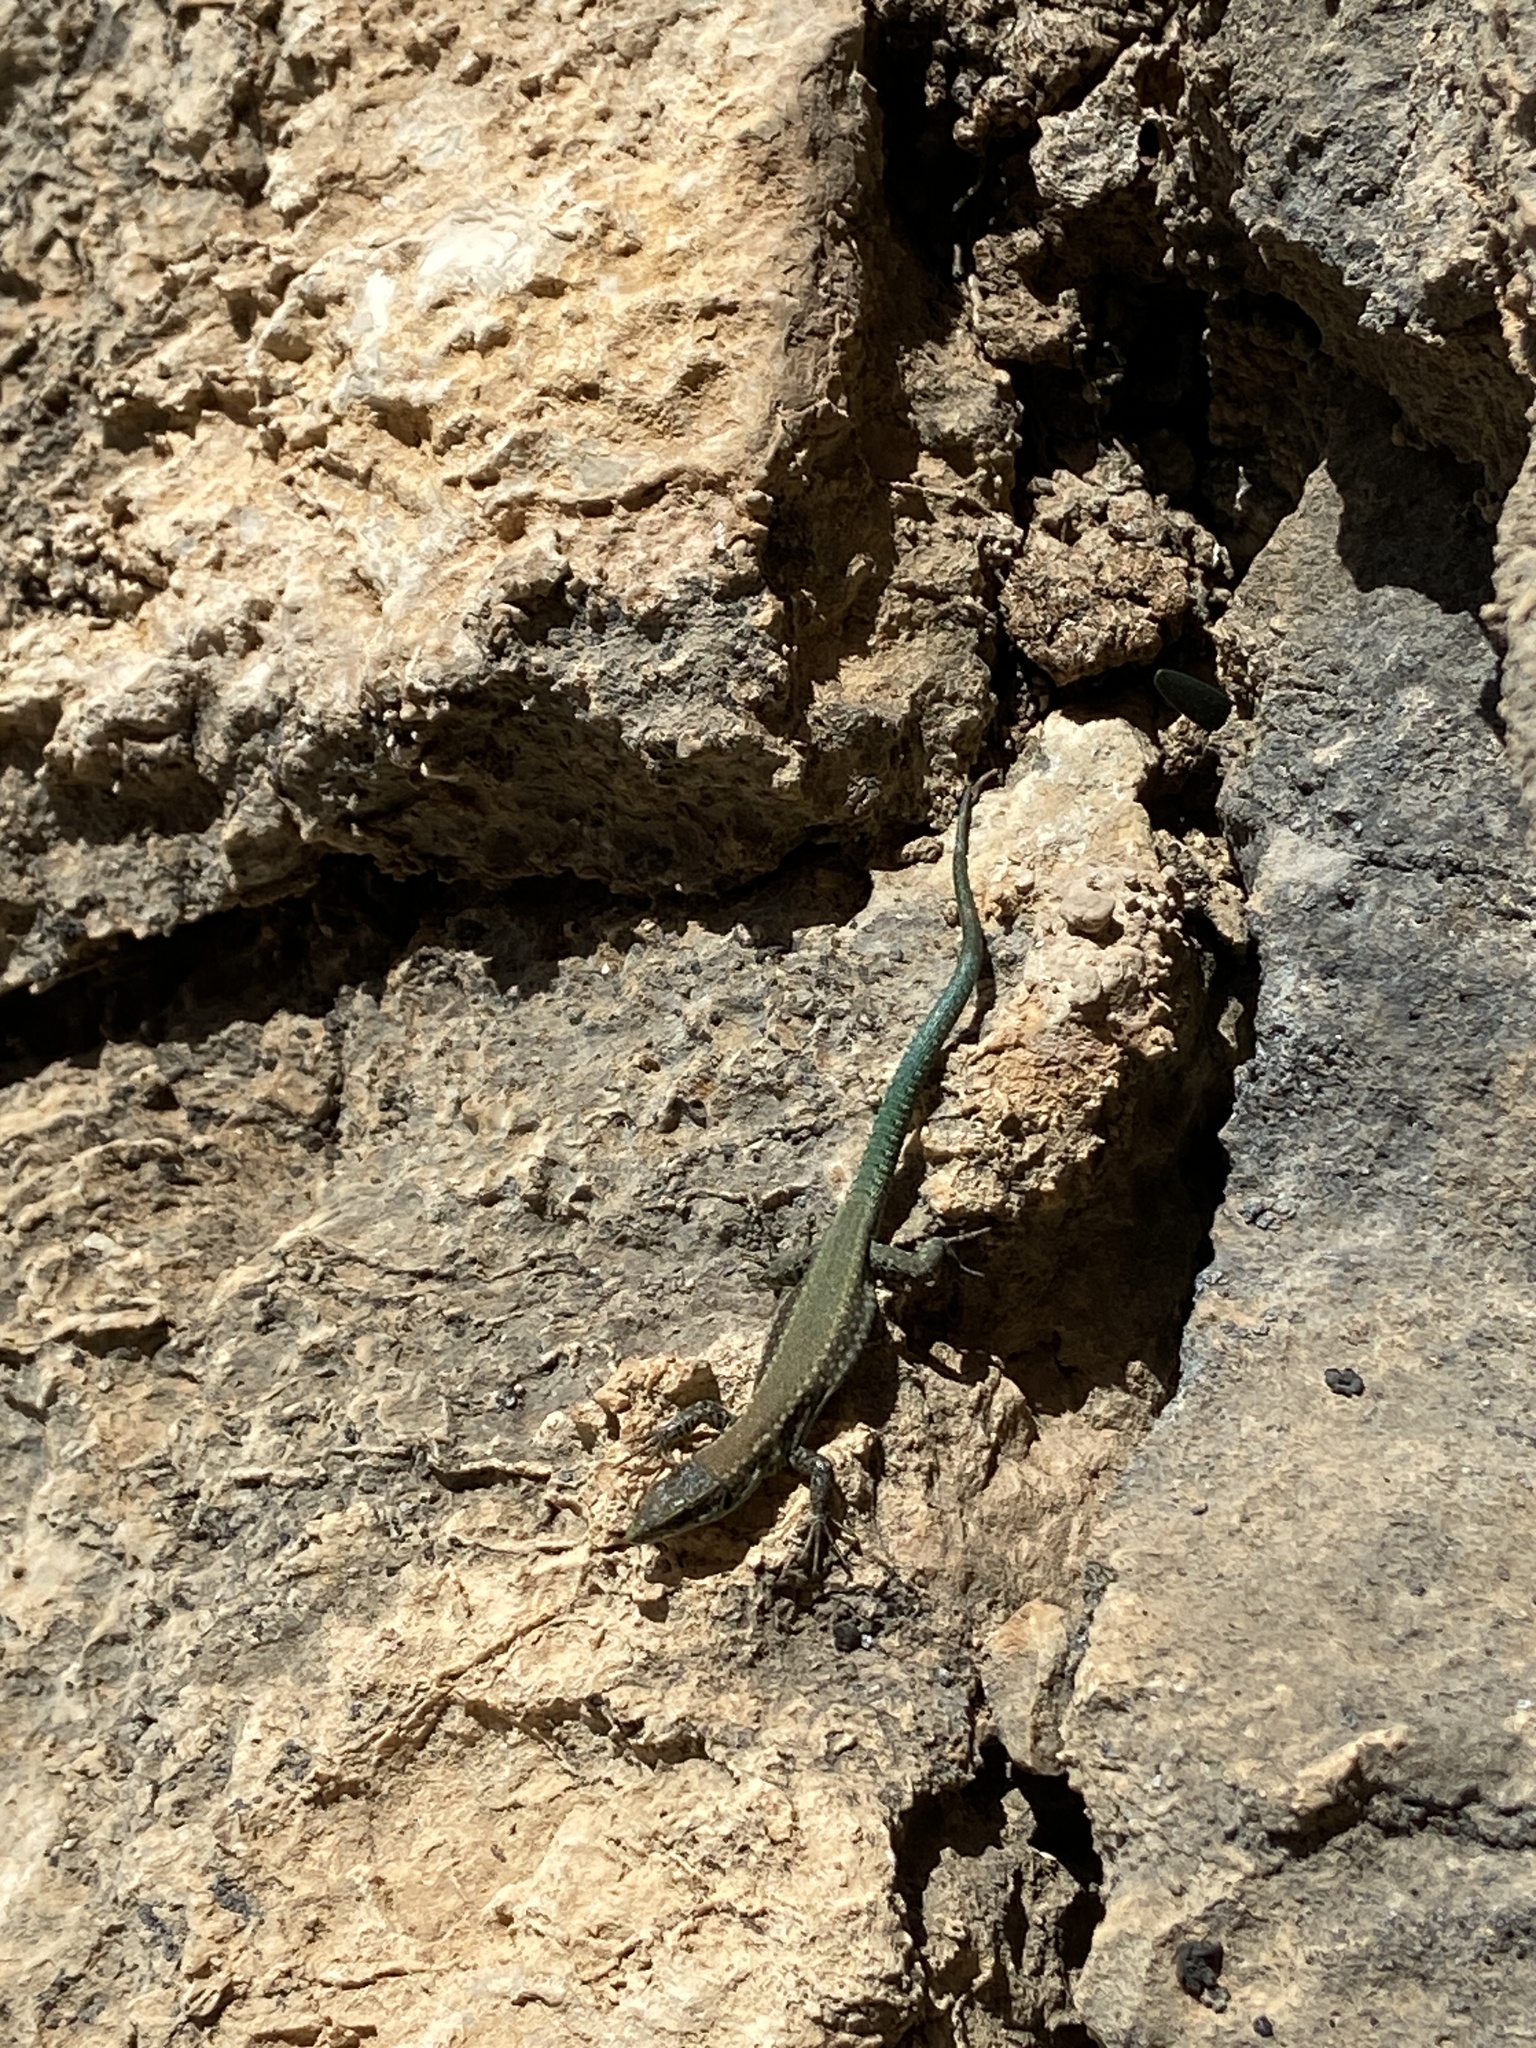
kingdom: Animalia
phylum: Chordata
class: Squamata
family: Lacertidae
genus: Podarcis
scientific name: Podarcis vaucheri
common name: Vaucher's wall lizard
